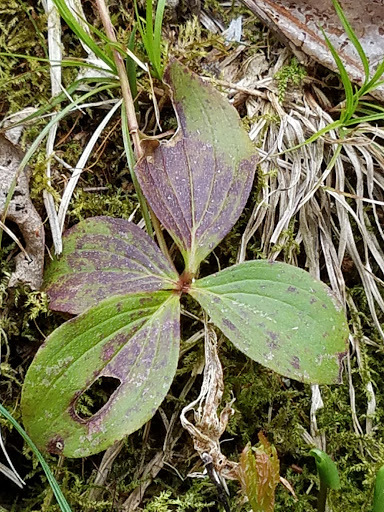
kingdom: Plantae
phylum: Tracheophyta
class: Magnoliopsida
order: Cornales
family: Cornaceae
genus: Cornus
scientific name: Cornus canadensis
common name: Creeping dogwood
